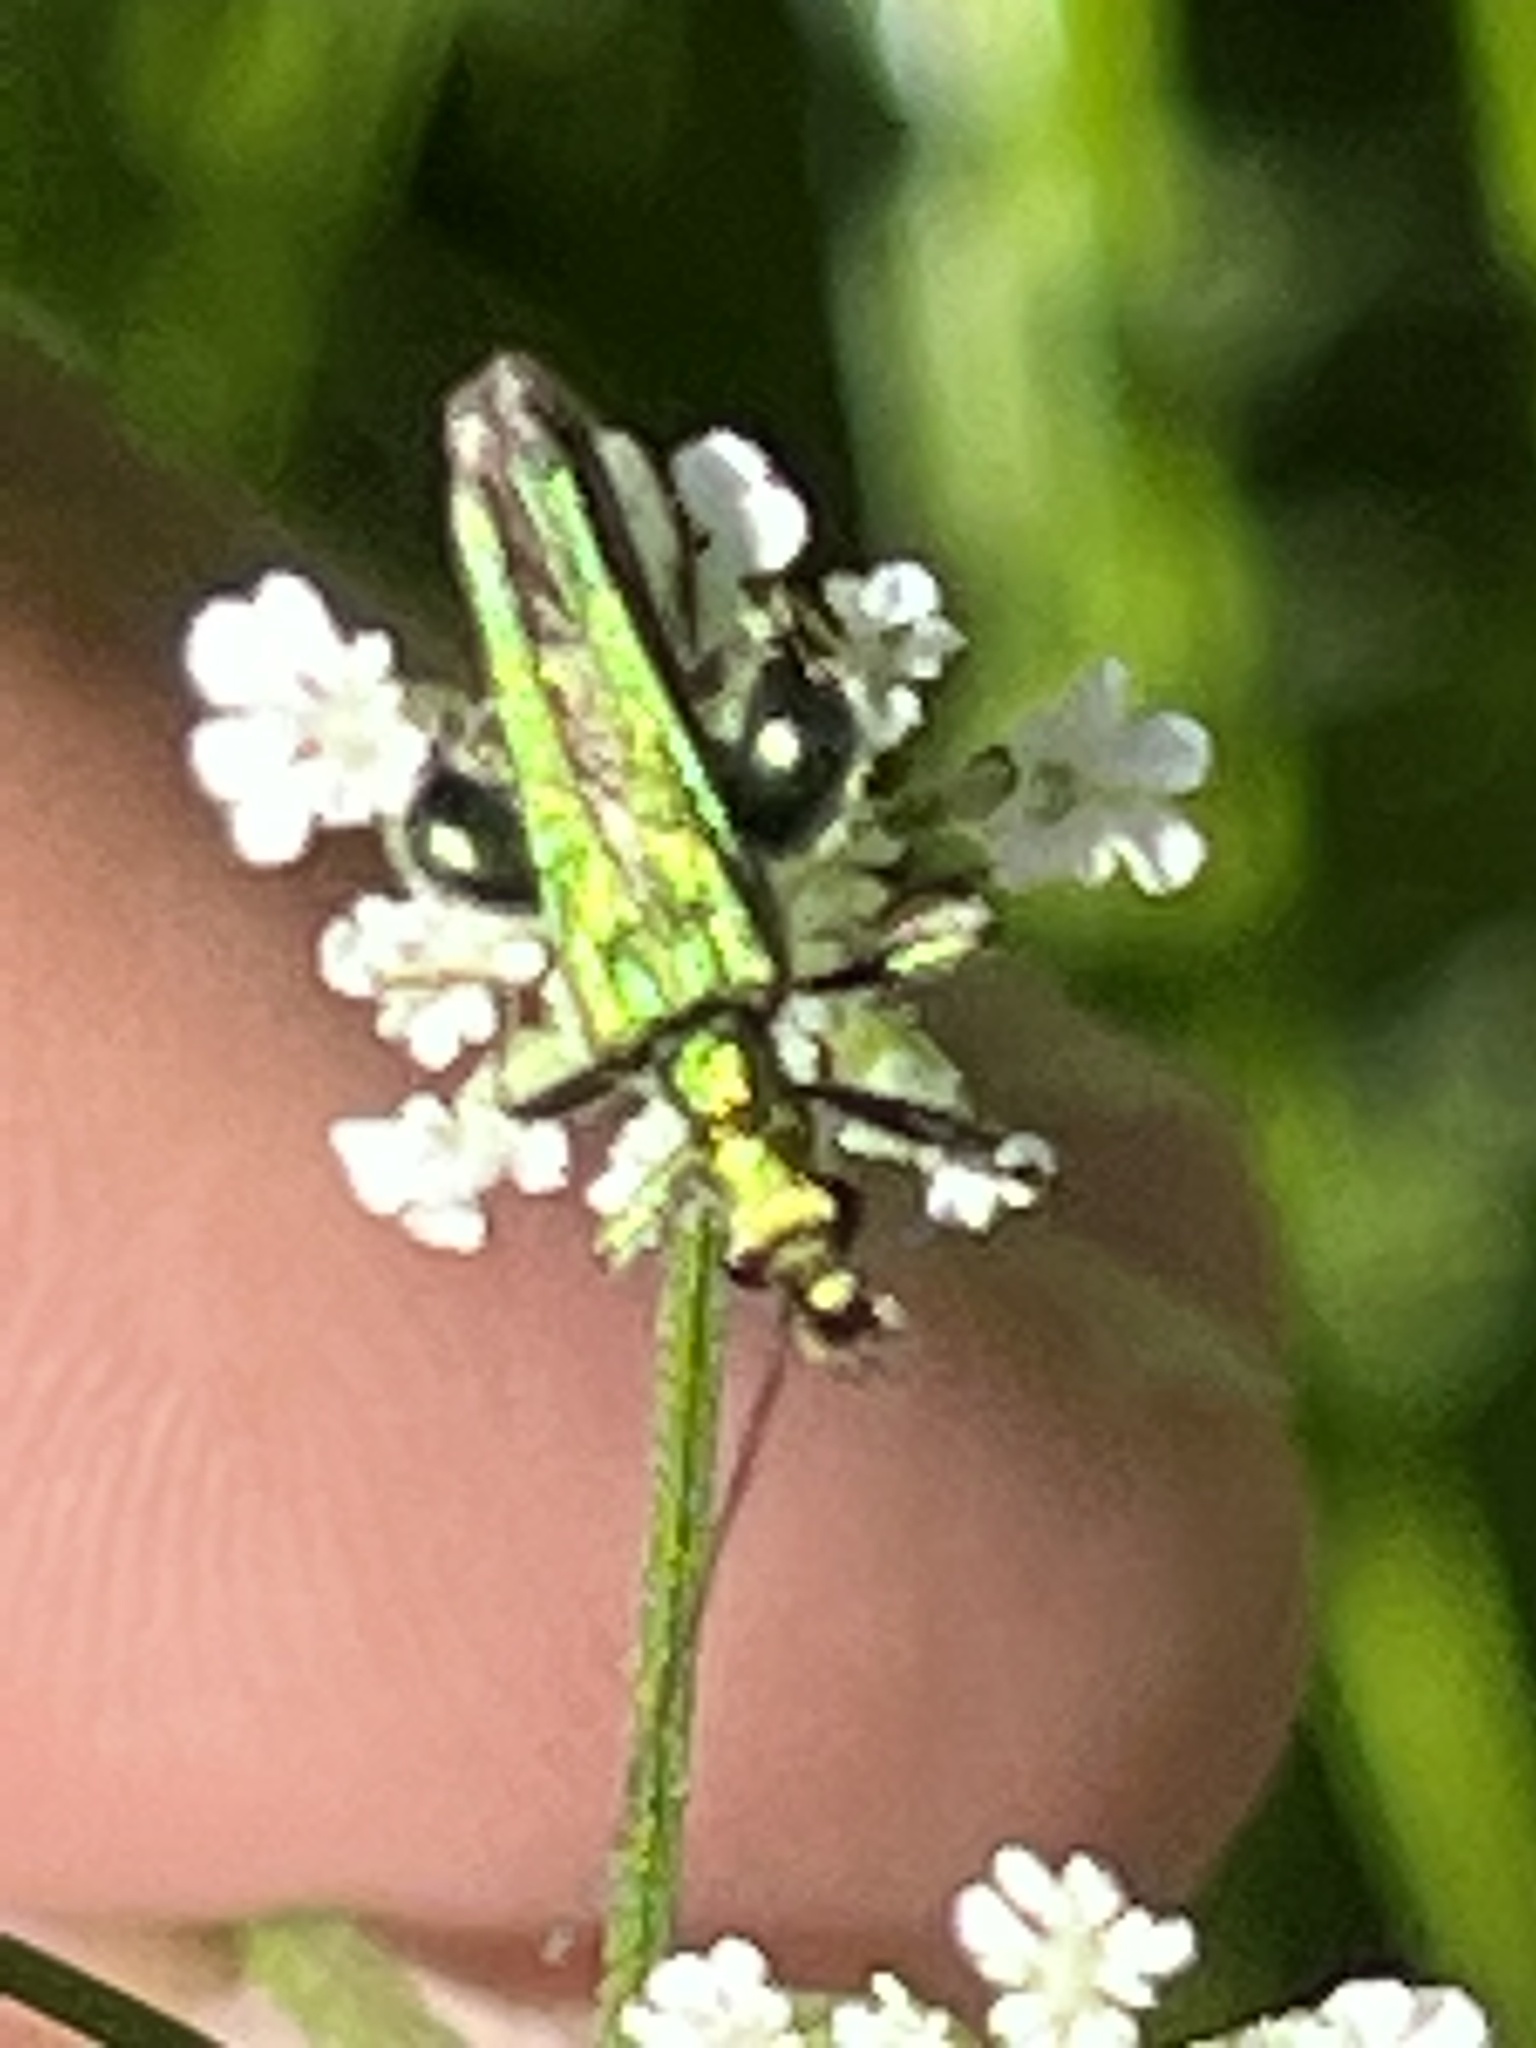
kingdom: Animalia
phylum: Arthropoda
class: Insecta
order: Coleoptera
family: Oedemeridae
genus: Oedemera
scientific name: Oedemera nobilis
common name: Swollen-thighed beetle
